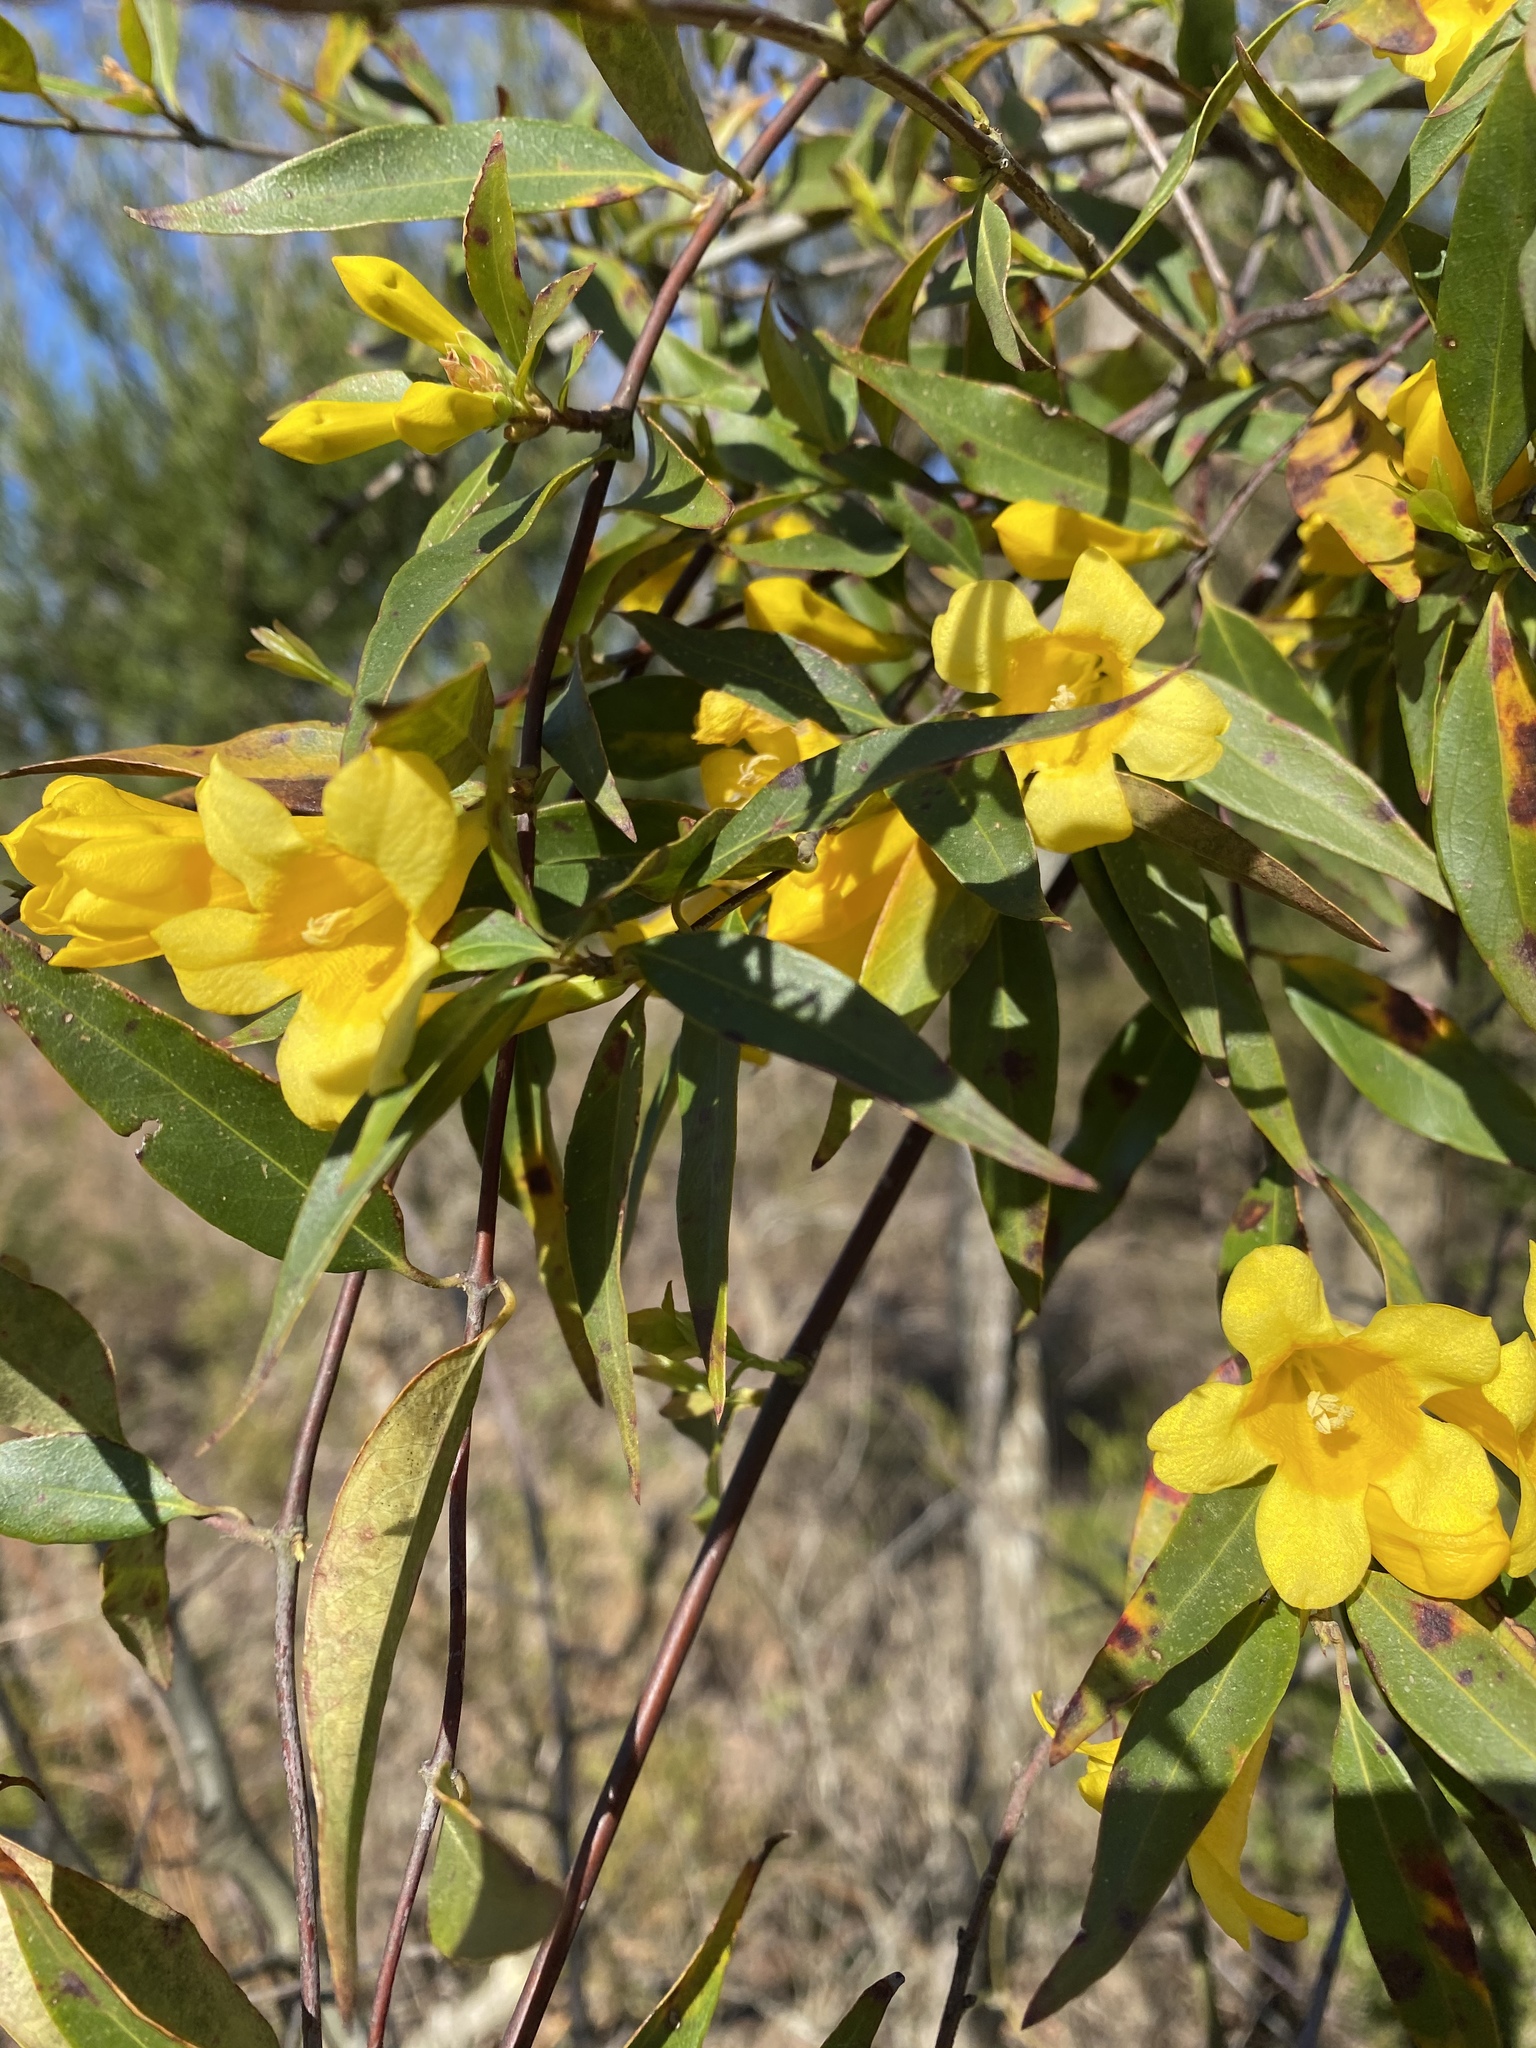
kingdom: Plantae
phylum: Tracheophyta
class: Magnoliopsida
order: Gentianales
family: Gelsemiaceae
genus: Gelsemium
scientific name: Gelsemium sempervirens
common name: Carolina-jasmine
